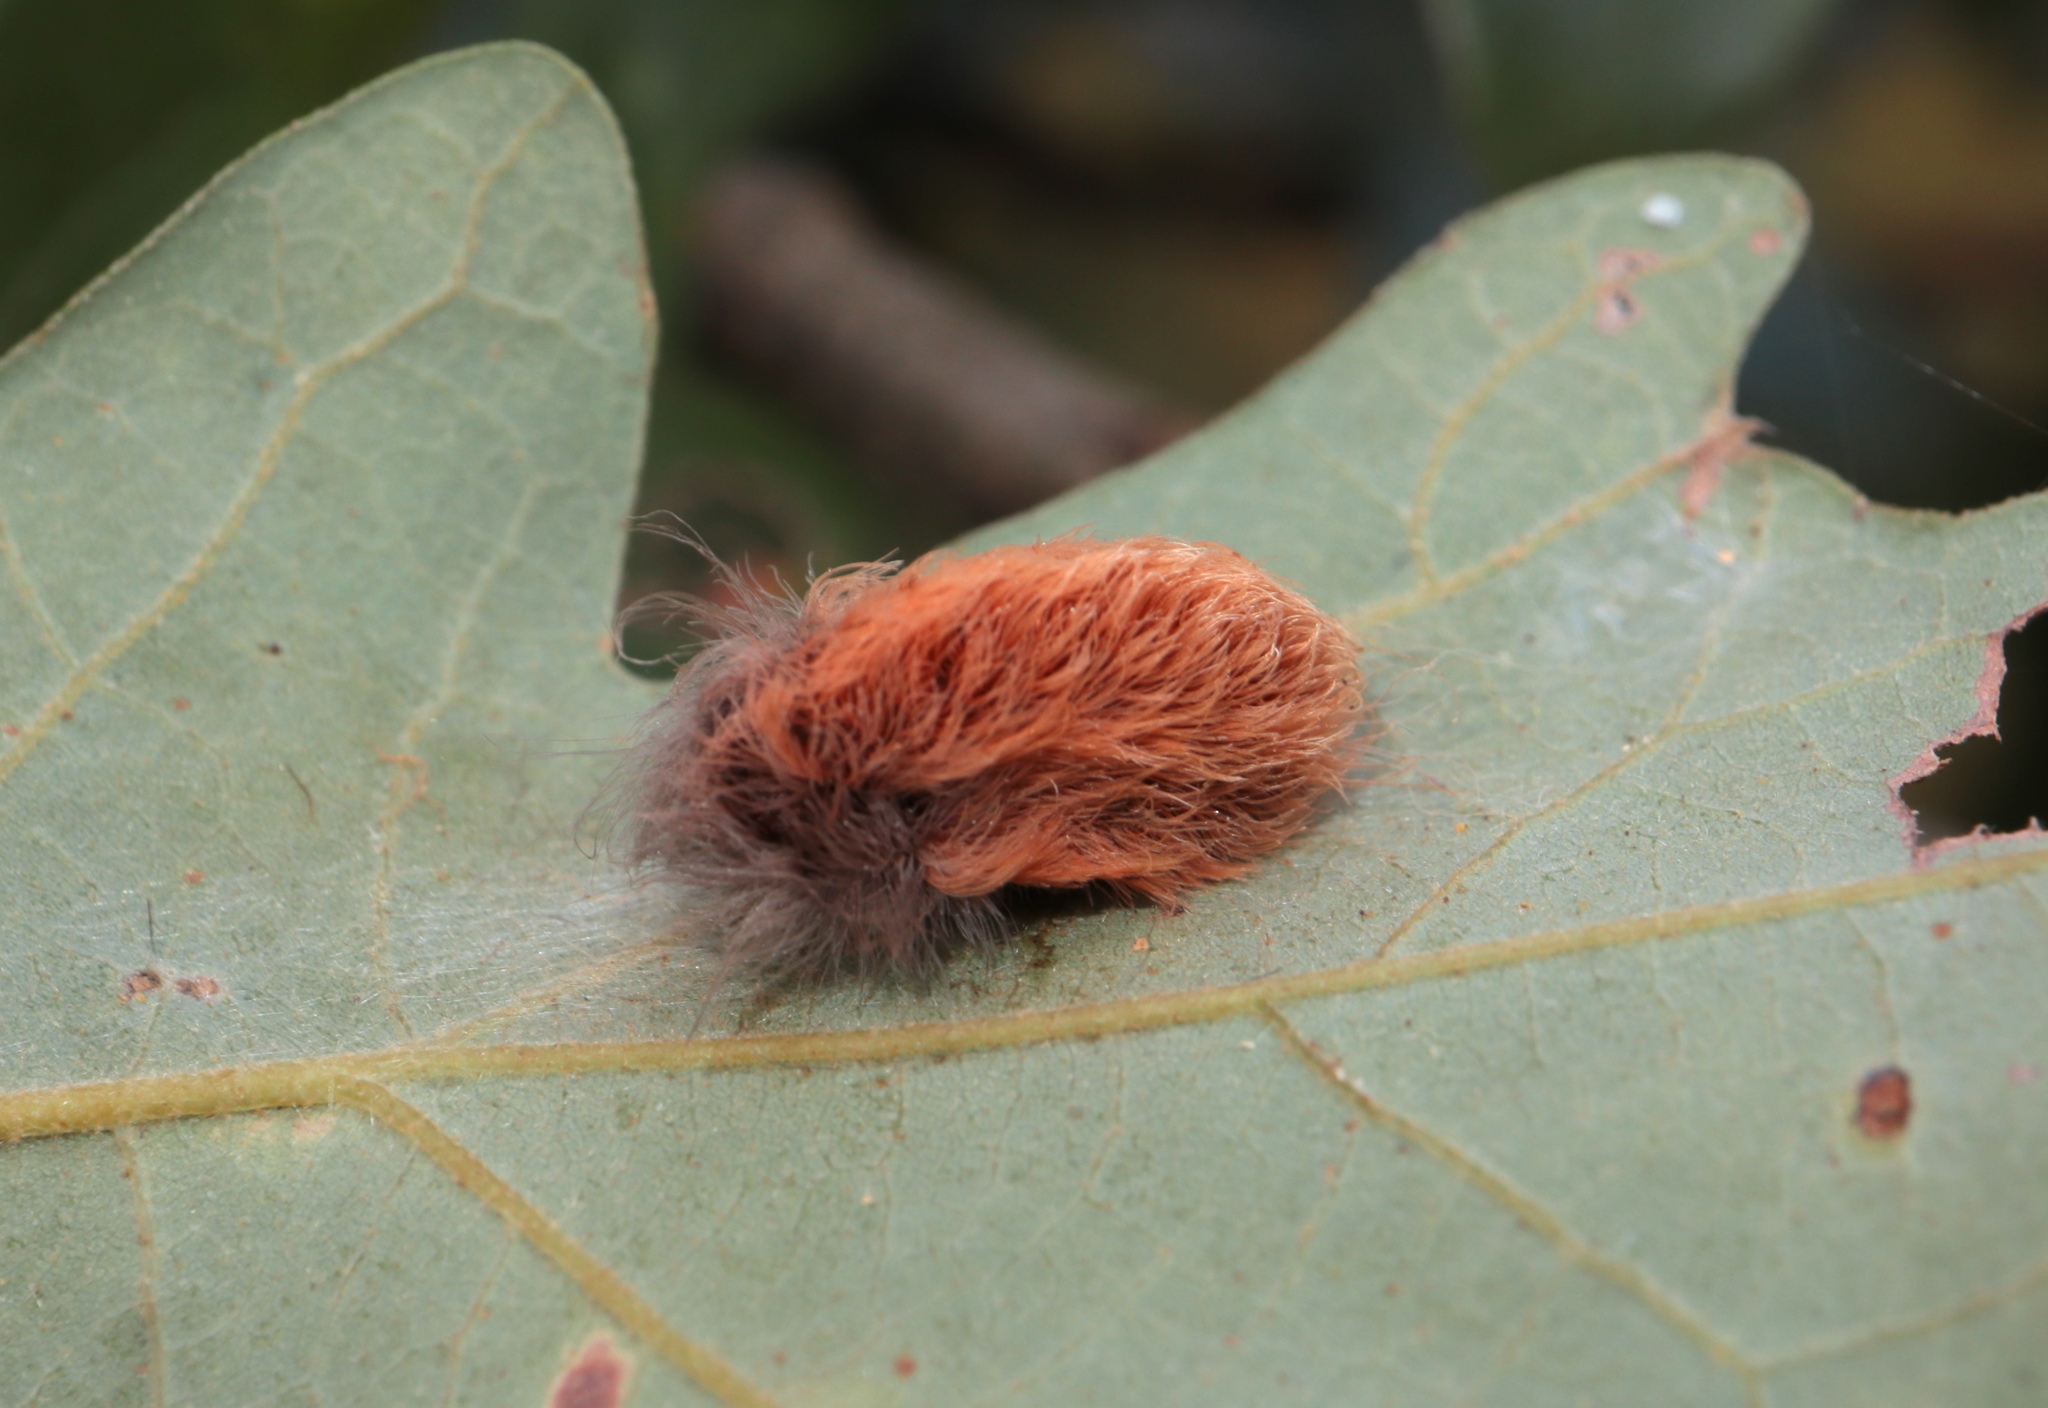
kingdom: Animalia
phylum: Arthropoda
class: Insecta
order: Lepidoptera
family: Megalopygidae
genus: Megalopyge
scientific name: Megalopyge crispata
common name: Black-waved flannel moth
